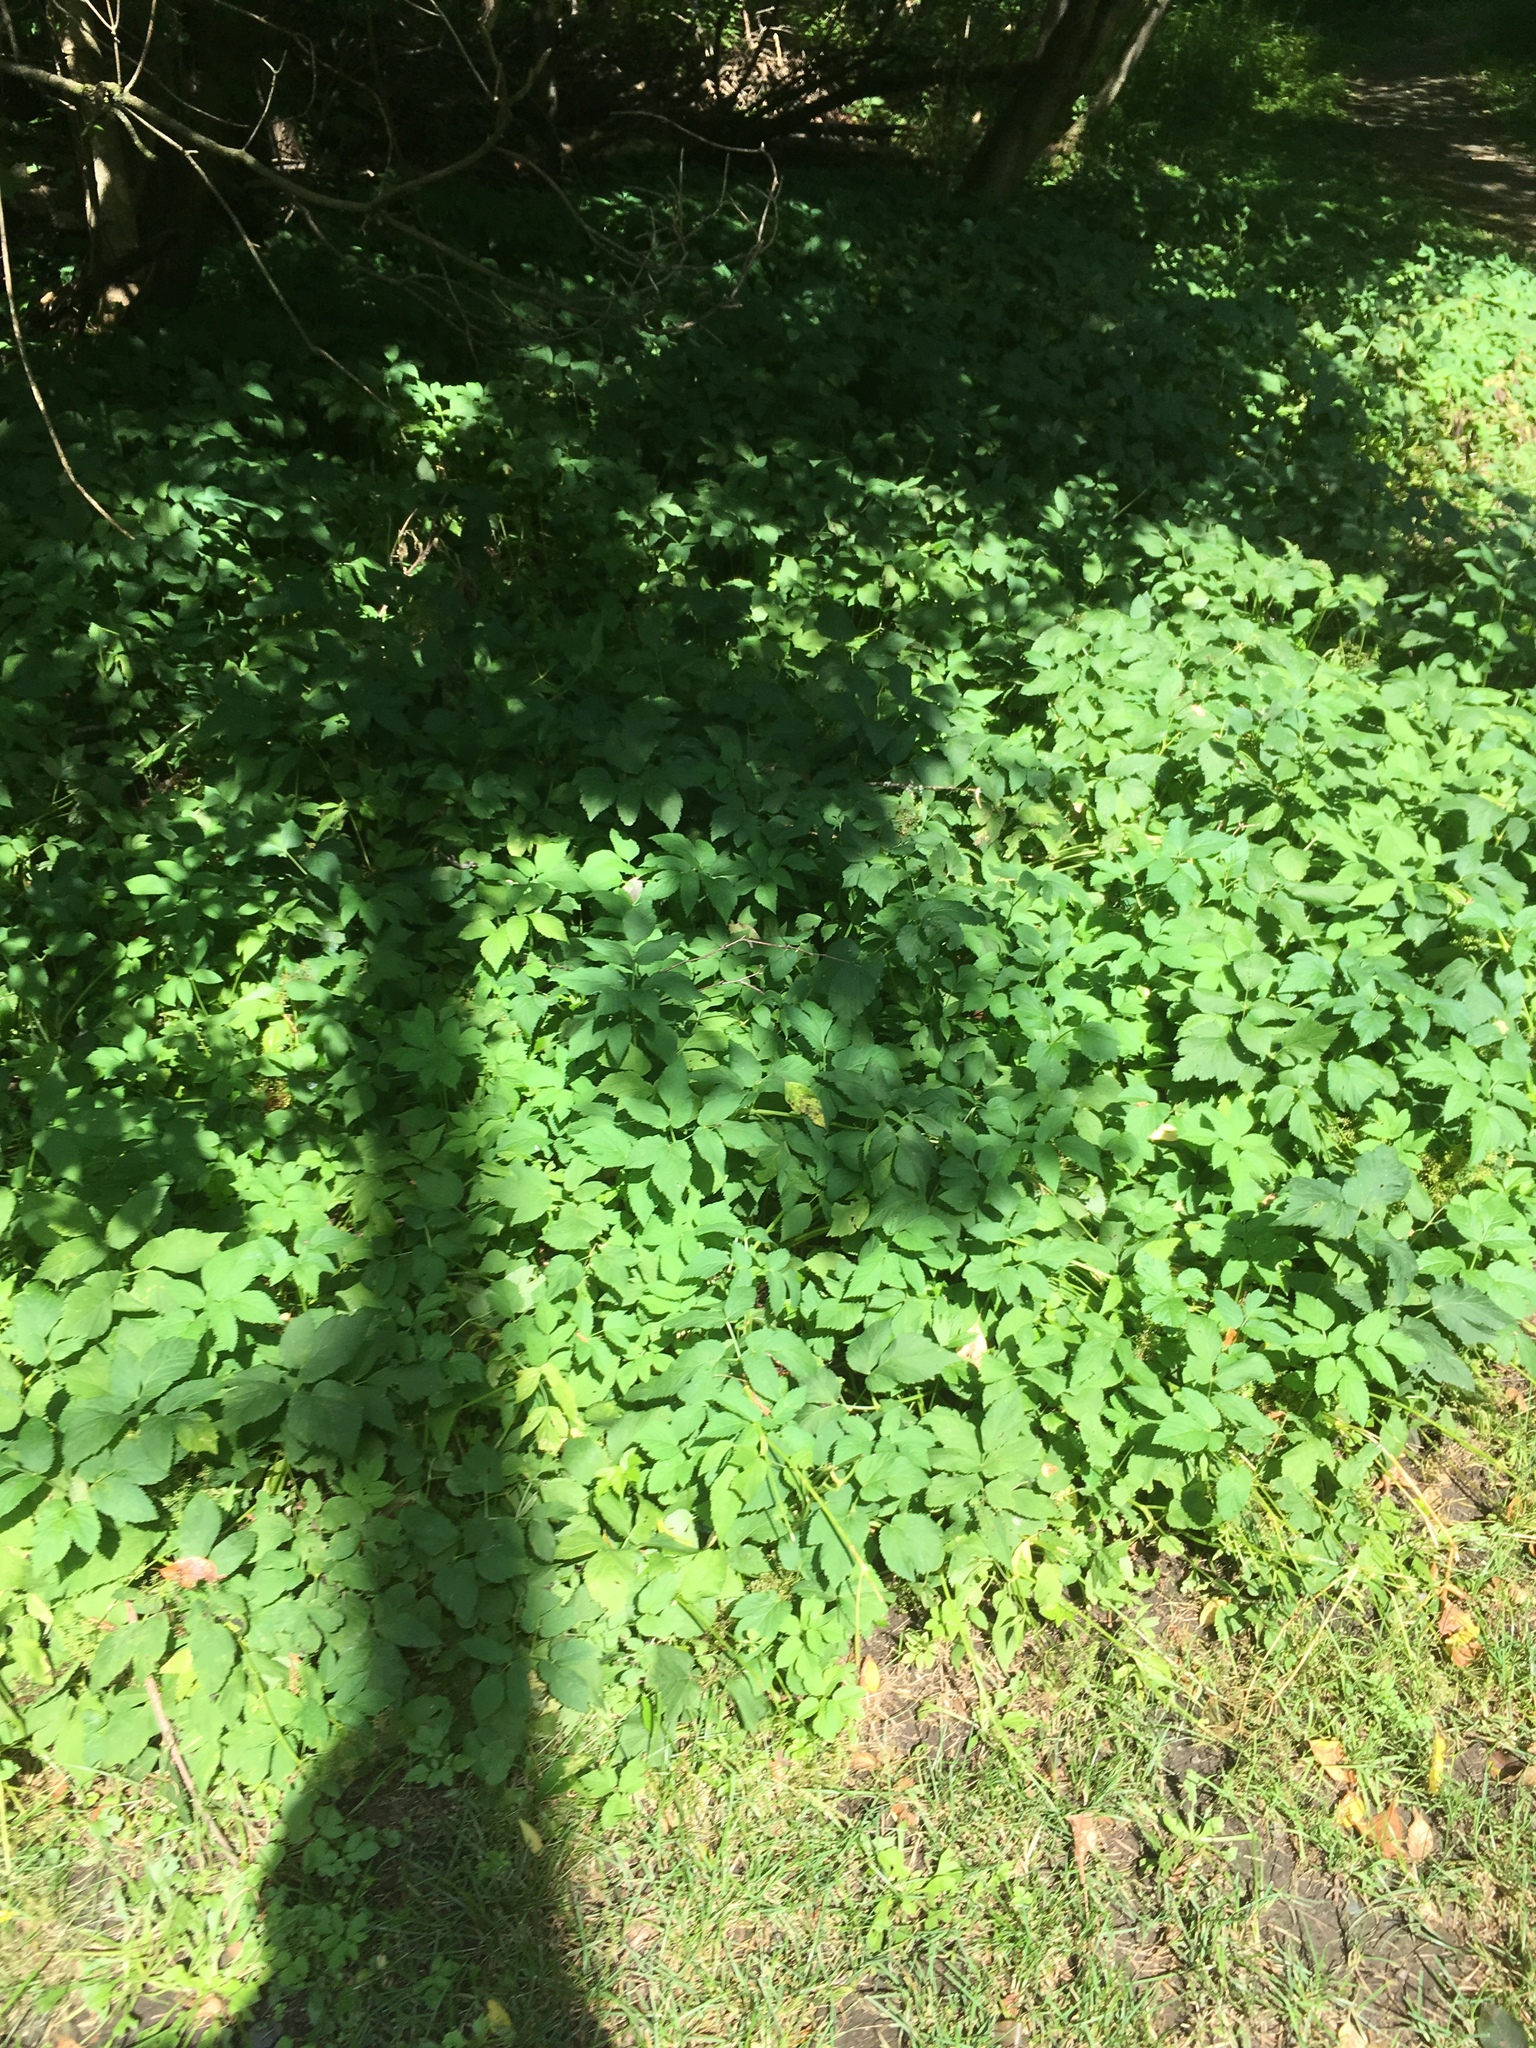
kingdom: Plantae
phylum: Tracheophyta
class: Magnoliopsida
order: Apiales
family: Apiaceae
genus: Aegopodium
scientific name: Aegopodium podagraria
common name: Ground-elder
